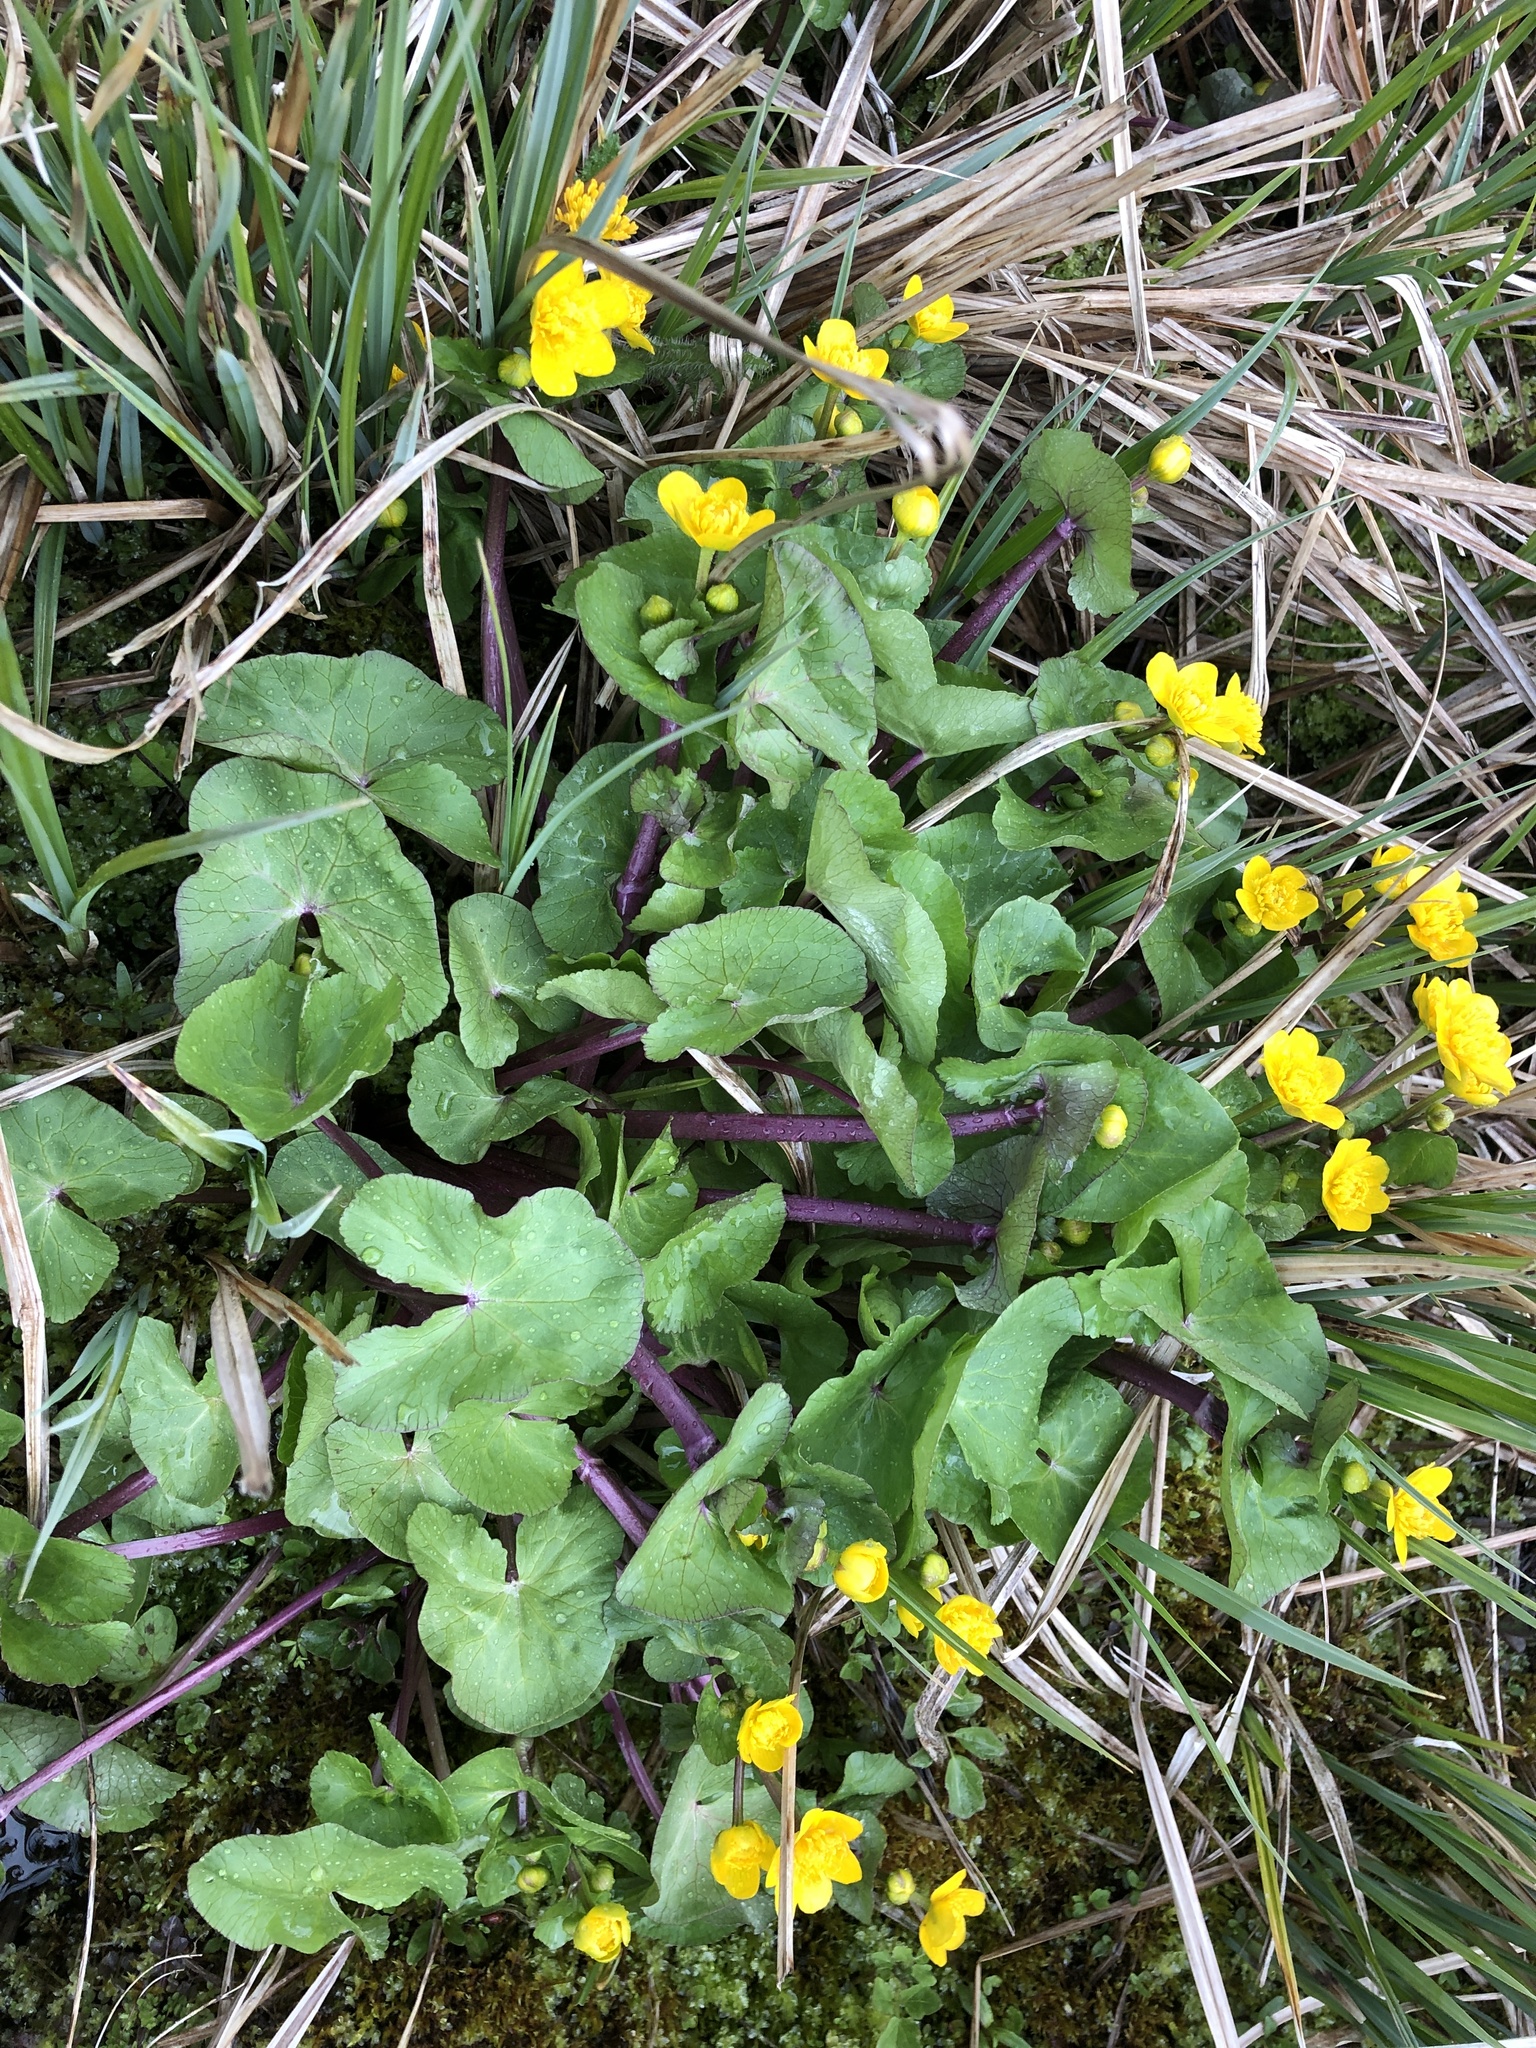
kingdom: Plantae
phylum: Tracheophyta
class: Magnoliopsida
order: Ranunculales
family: Ranunculaceae
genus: Caltha
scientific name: Caltha palustris
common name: Marsh marigold
